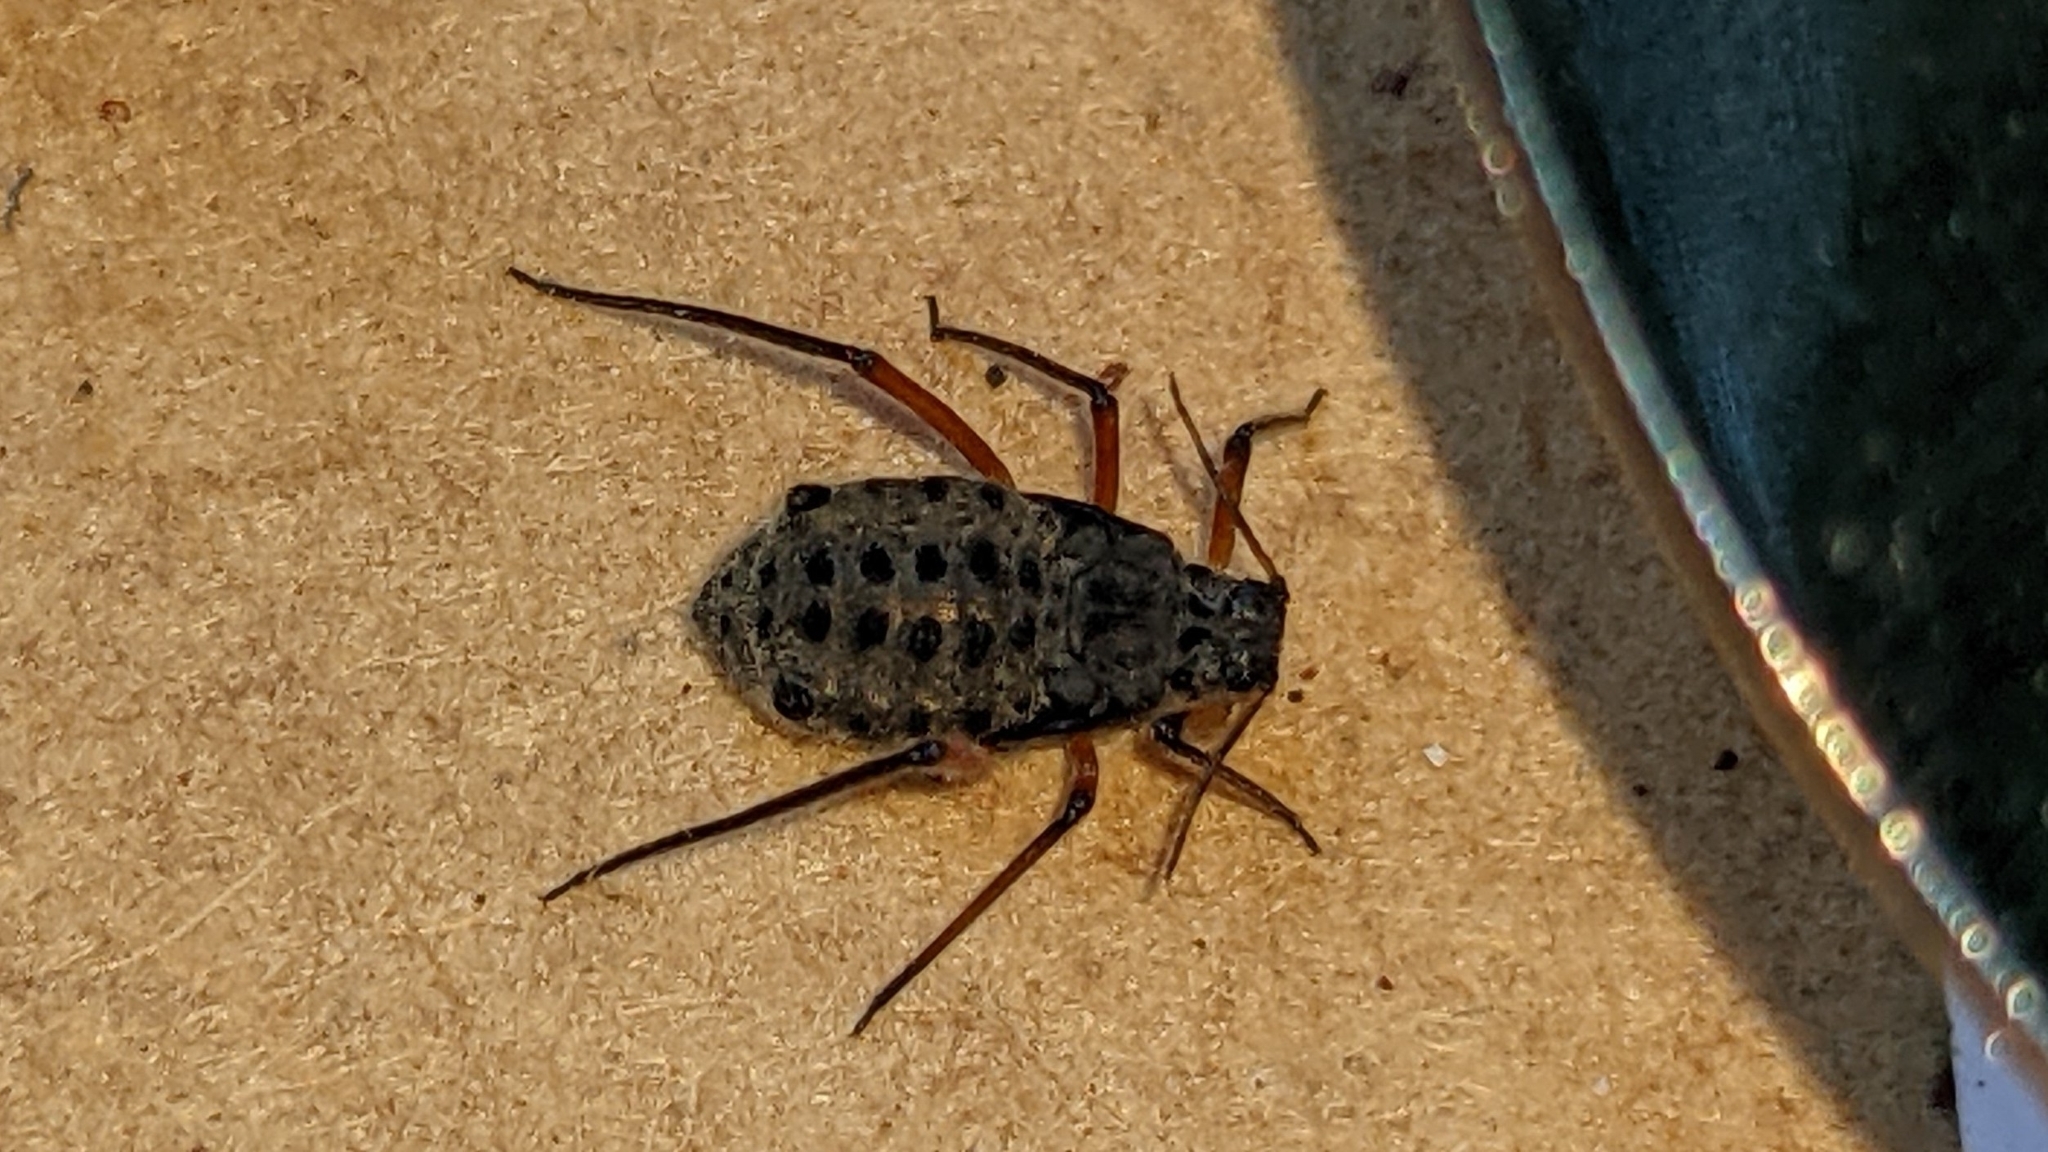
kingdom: Animalia
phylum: Arthropoda
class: Insecta
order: Hemiptera
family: Aphididae
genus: Longistigma
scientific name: Longistigma caryae
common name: Giant bark aphid
